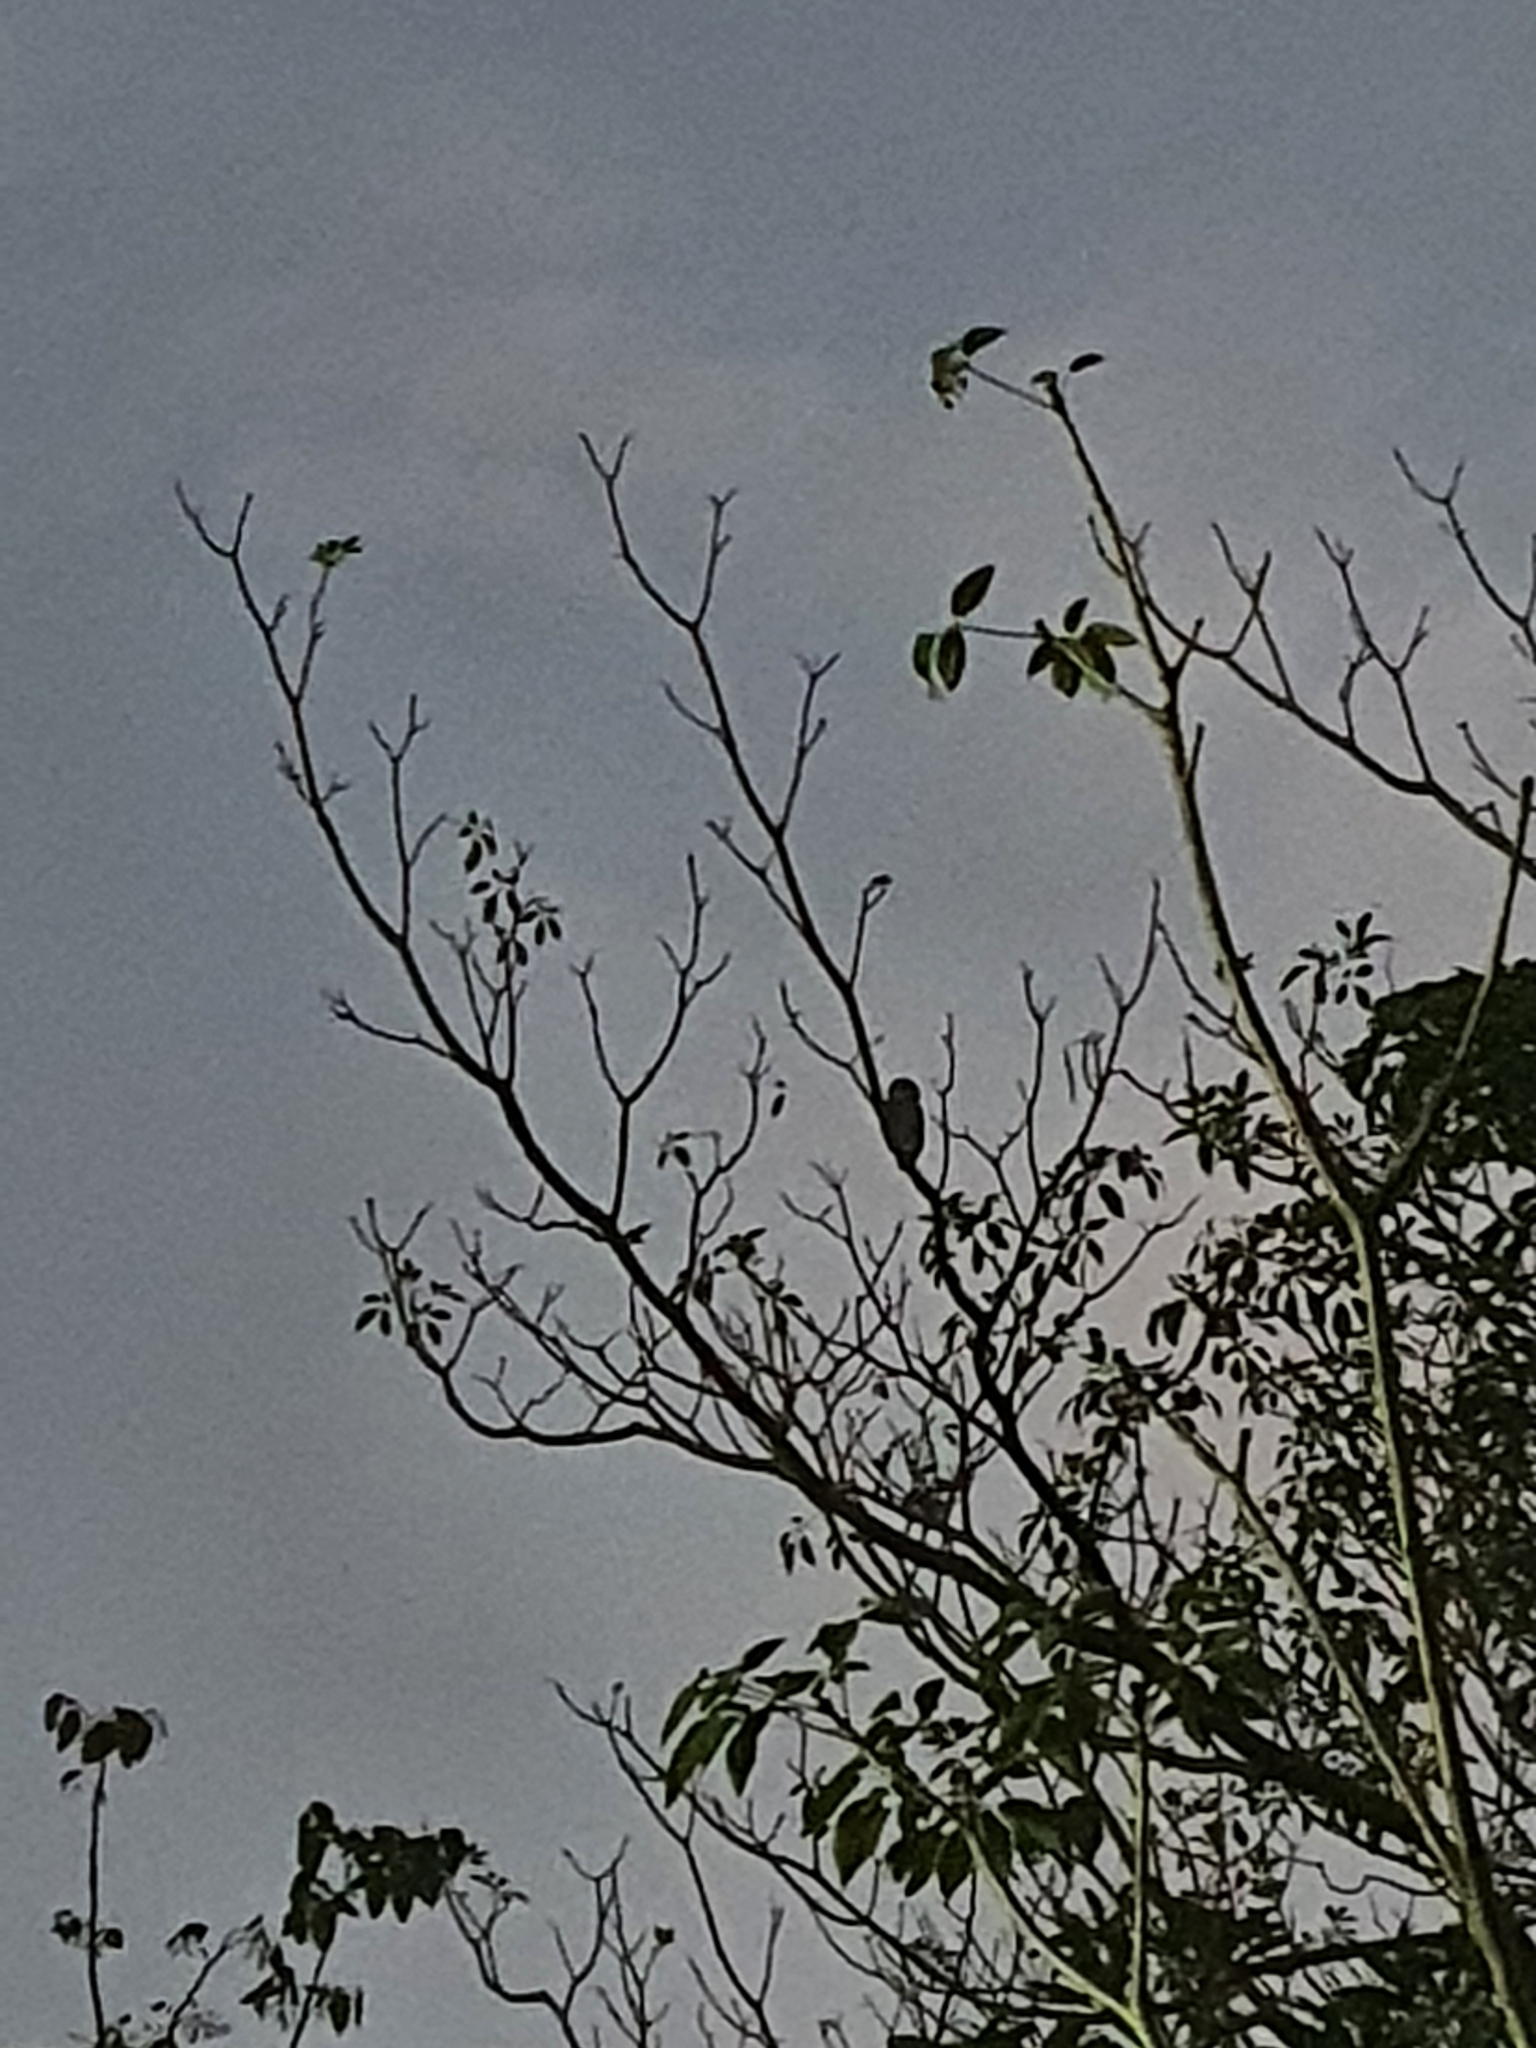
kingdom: Animalia
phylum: Chordata
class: Aves
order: Strigiformes
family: Strigidae
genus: Athene
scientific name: Athene brama
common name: Spotted owlet
